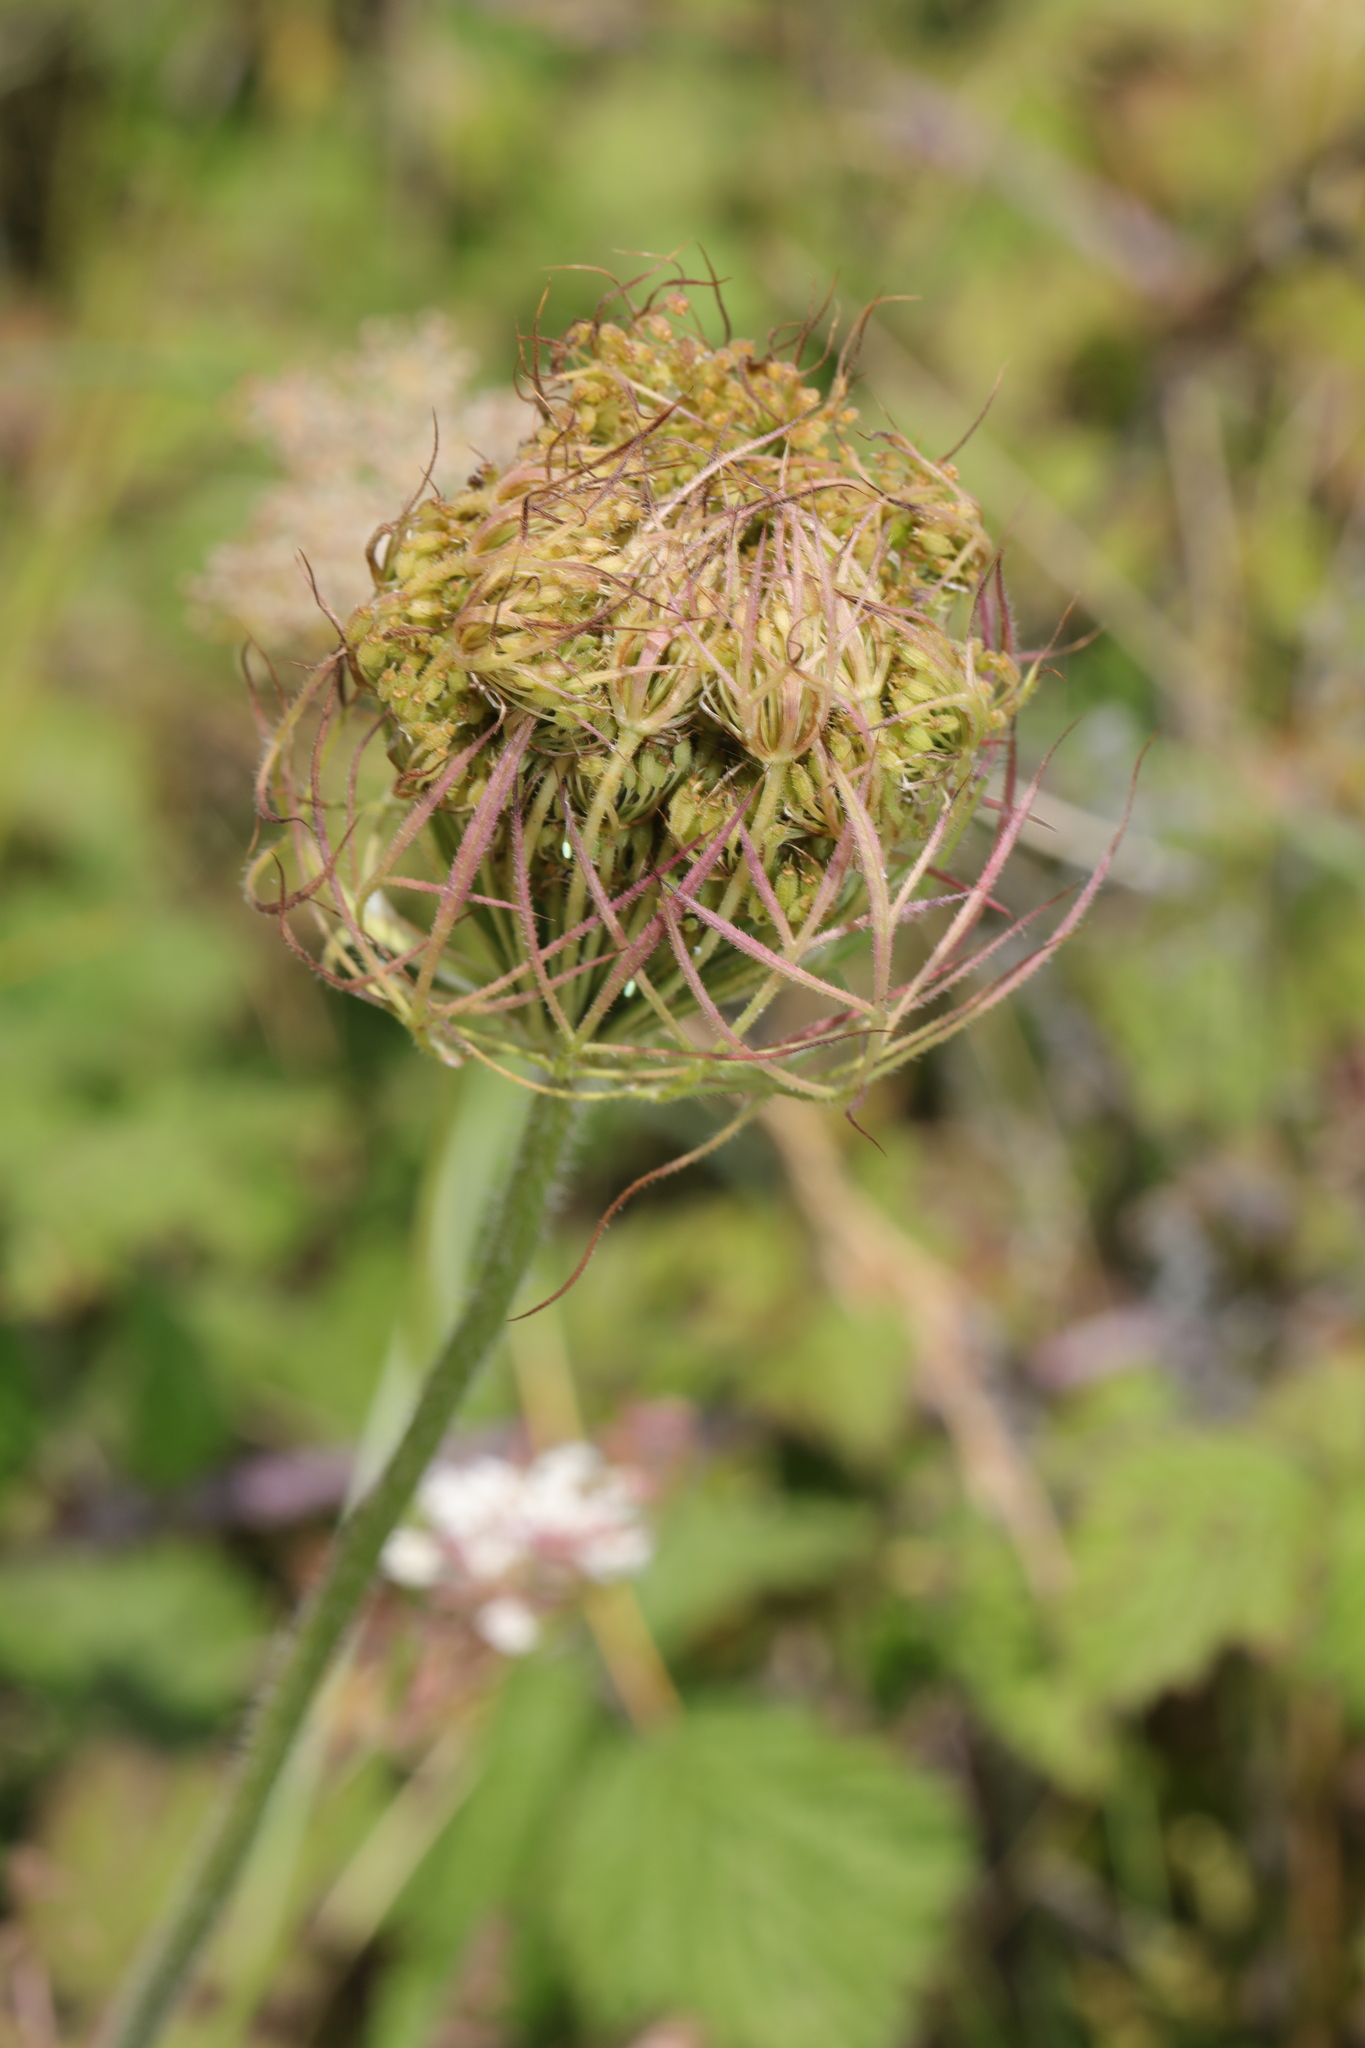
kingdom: Plantae
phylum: Tracheophyta
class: Magnoliopsida
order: Apiales
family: Apiaceae
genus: Daucus
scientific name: Daucus carota
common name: Wild carrot
